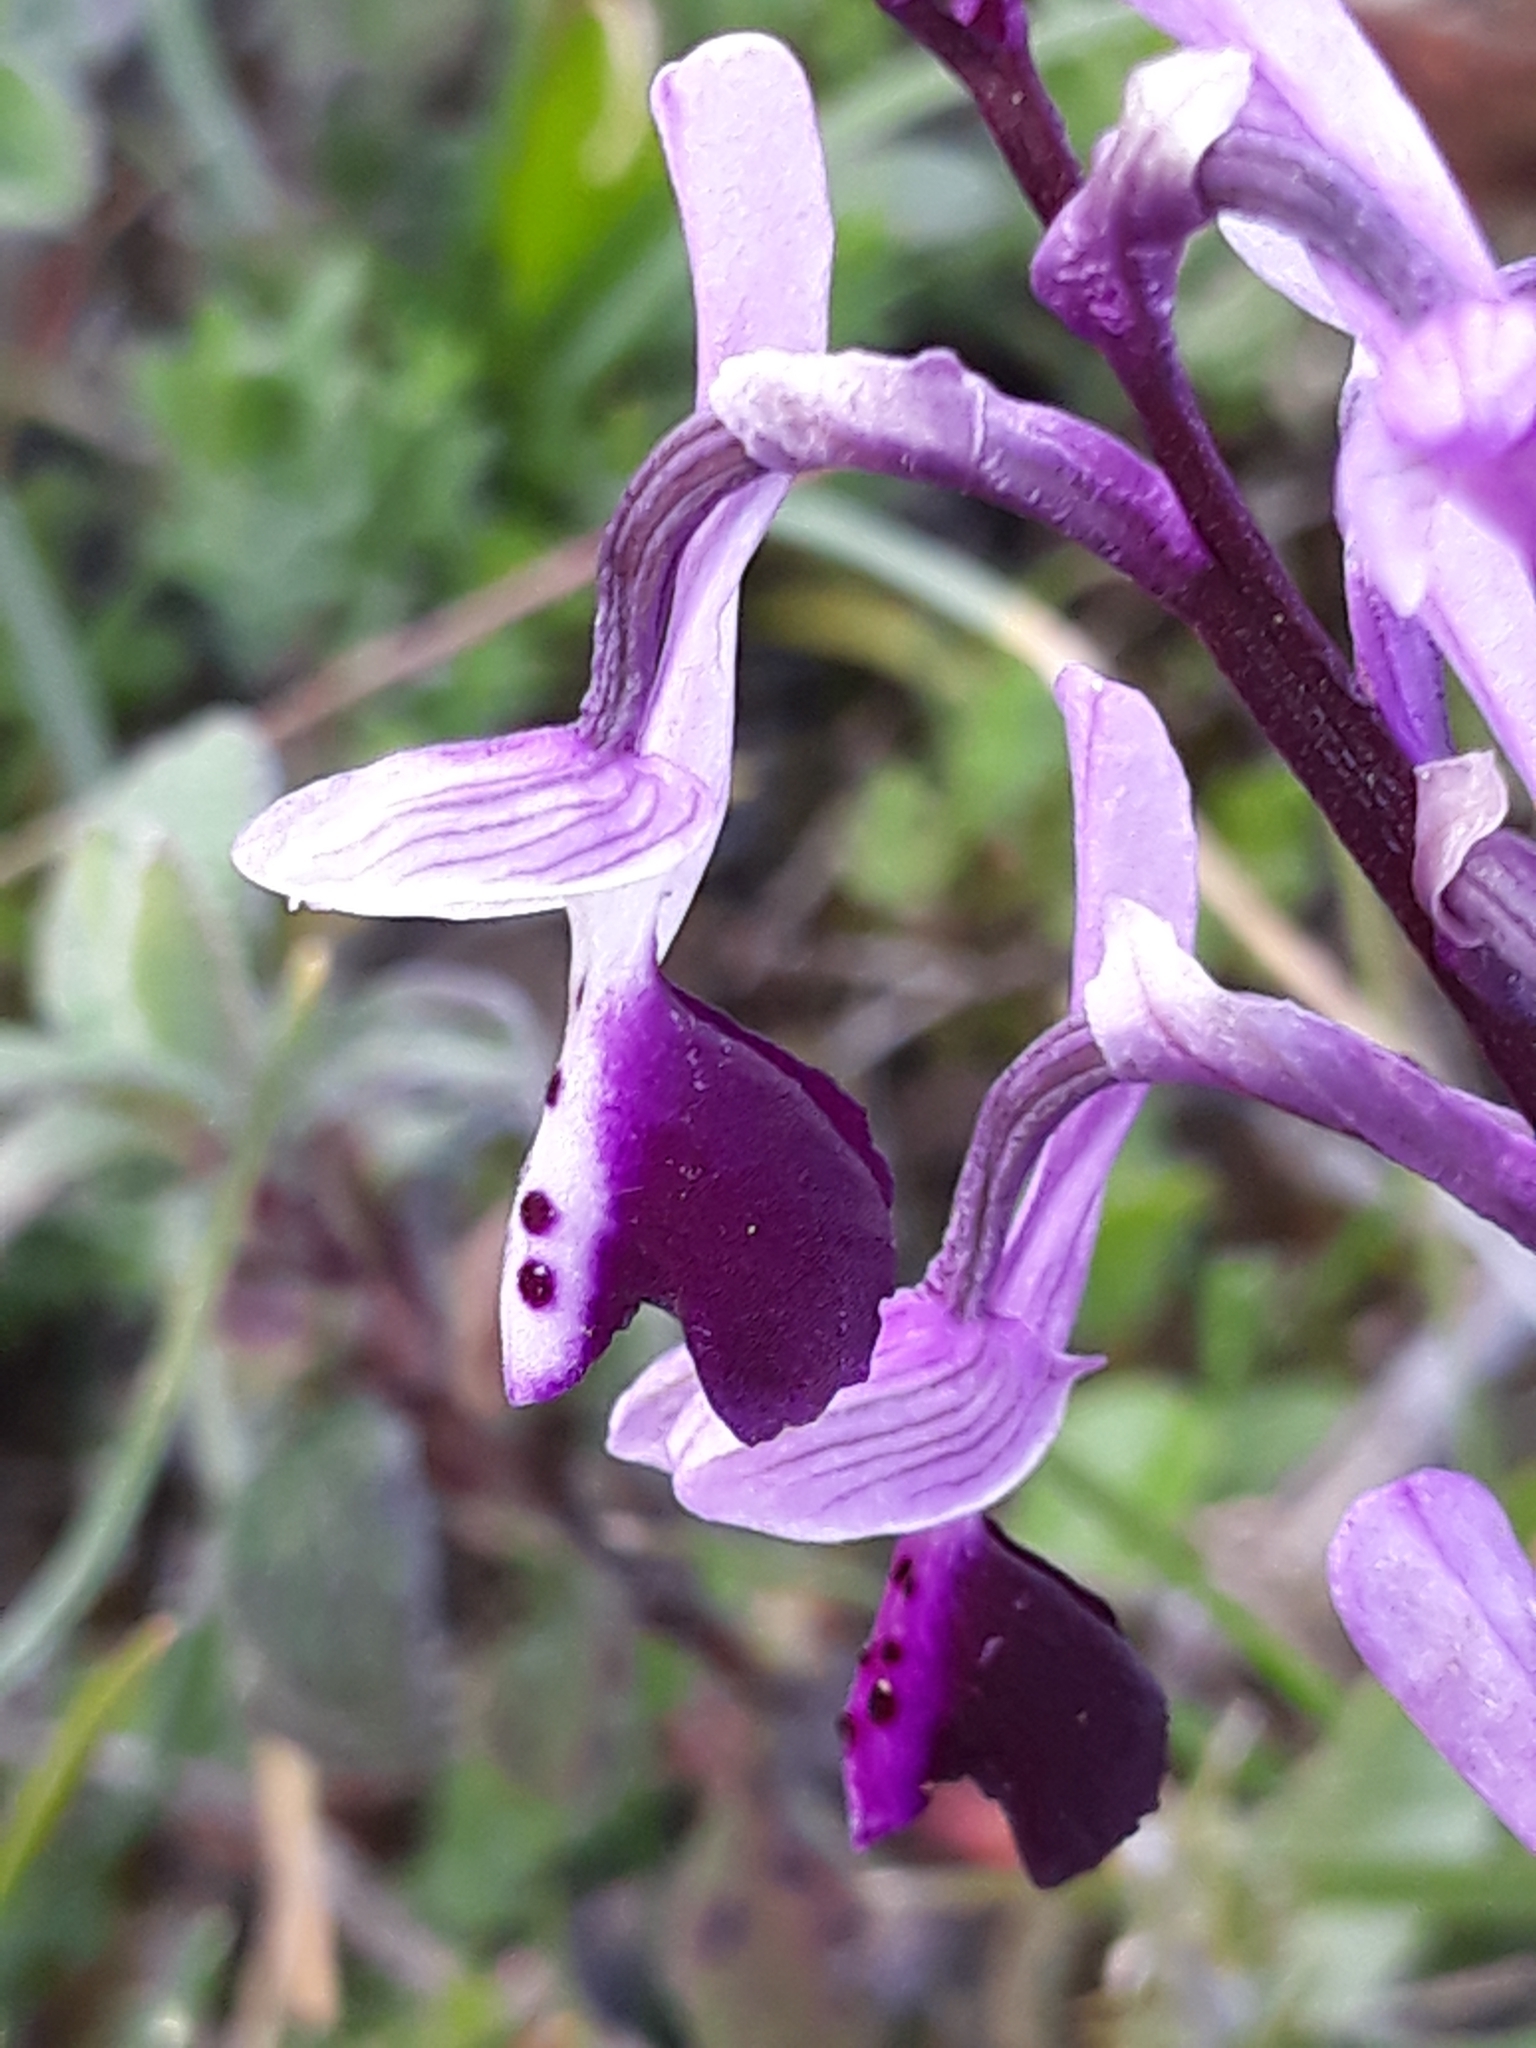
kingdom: Plantae
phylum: Tracheophyta
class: Liliopsida
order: Asparagales
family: Orchidaceae
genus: Anacamptis
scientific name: Anacamptis morio
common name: Green-winged orchid
